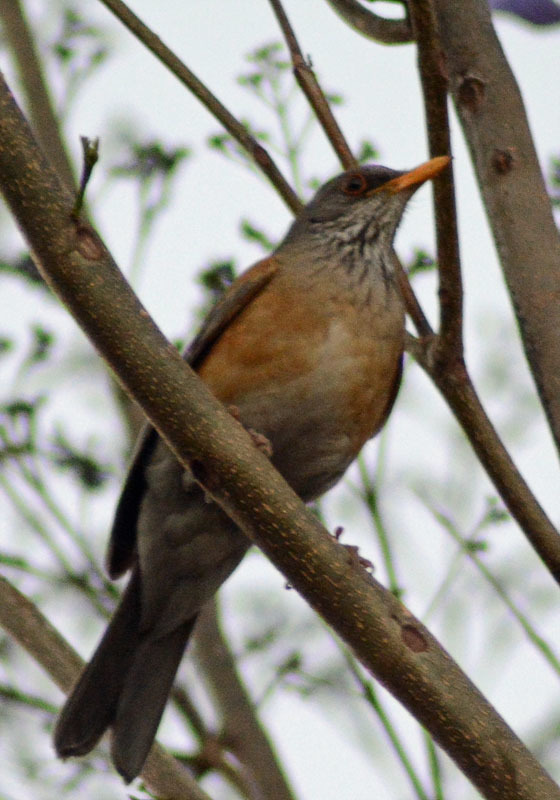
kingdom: Animalia
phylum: Chordata
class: Aves
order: Passeriformes
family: Turdidae
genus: Turdus
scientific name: Turdus rufopalliatus
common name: Rufous-backed robin
